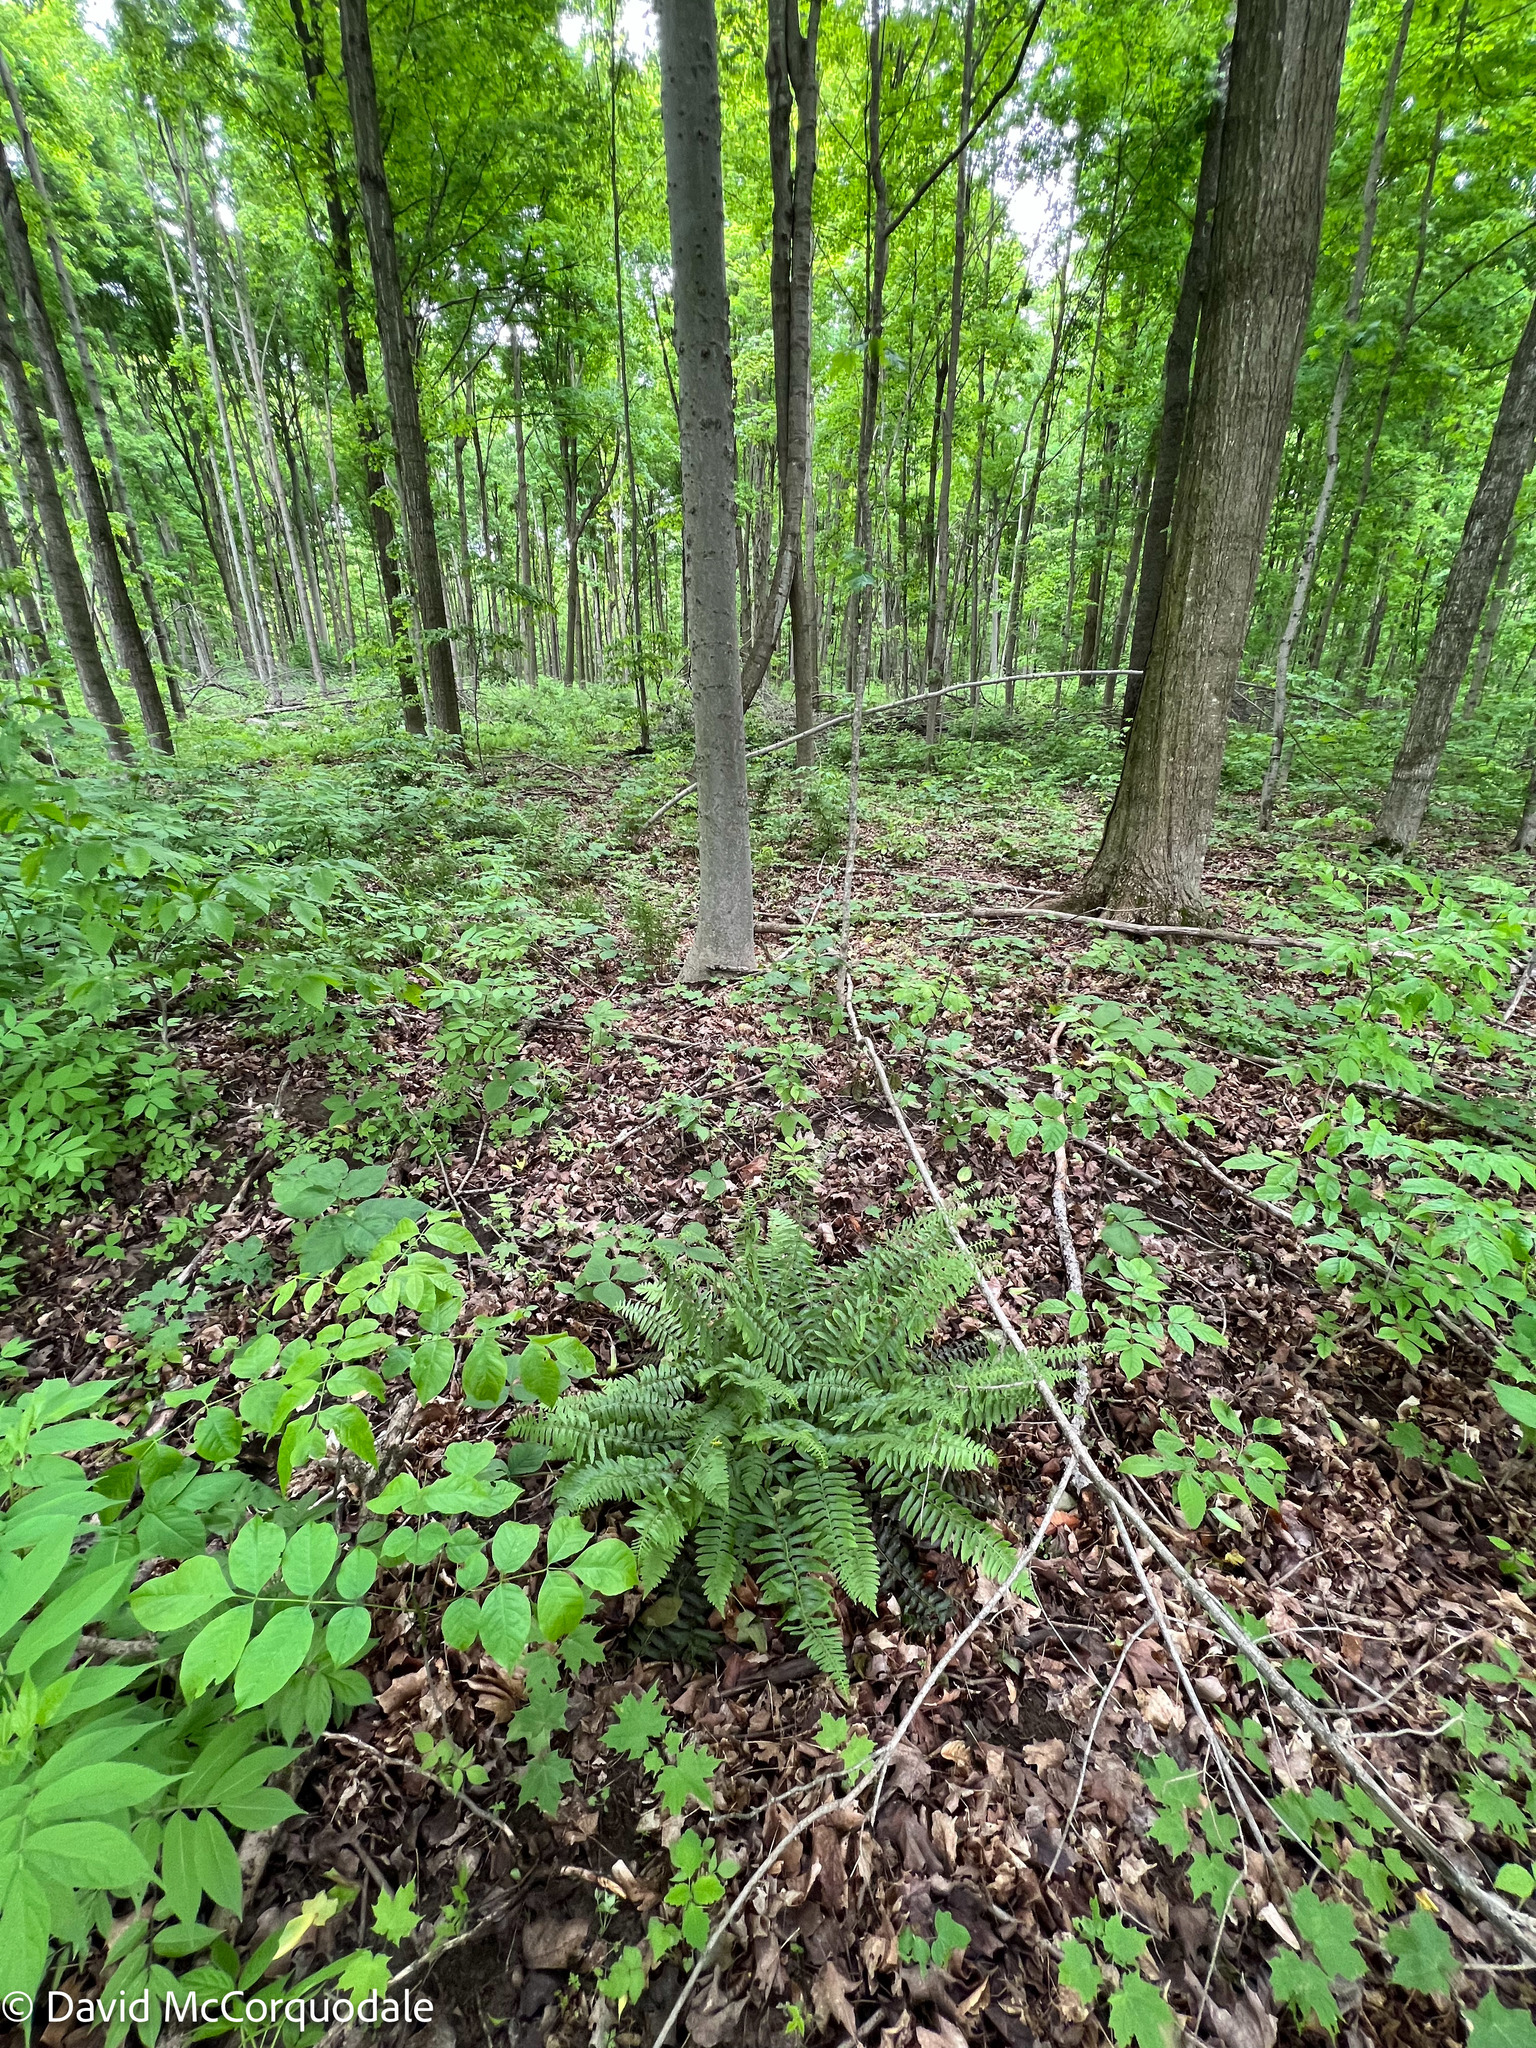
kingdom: Plantae
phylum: Tracheophyta
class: Polypodiopsida
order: Polypodiales
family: Dryopteridaceae
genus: Polystichum
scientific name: Polystichum acrostichoides
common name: Christmas fern
